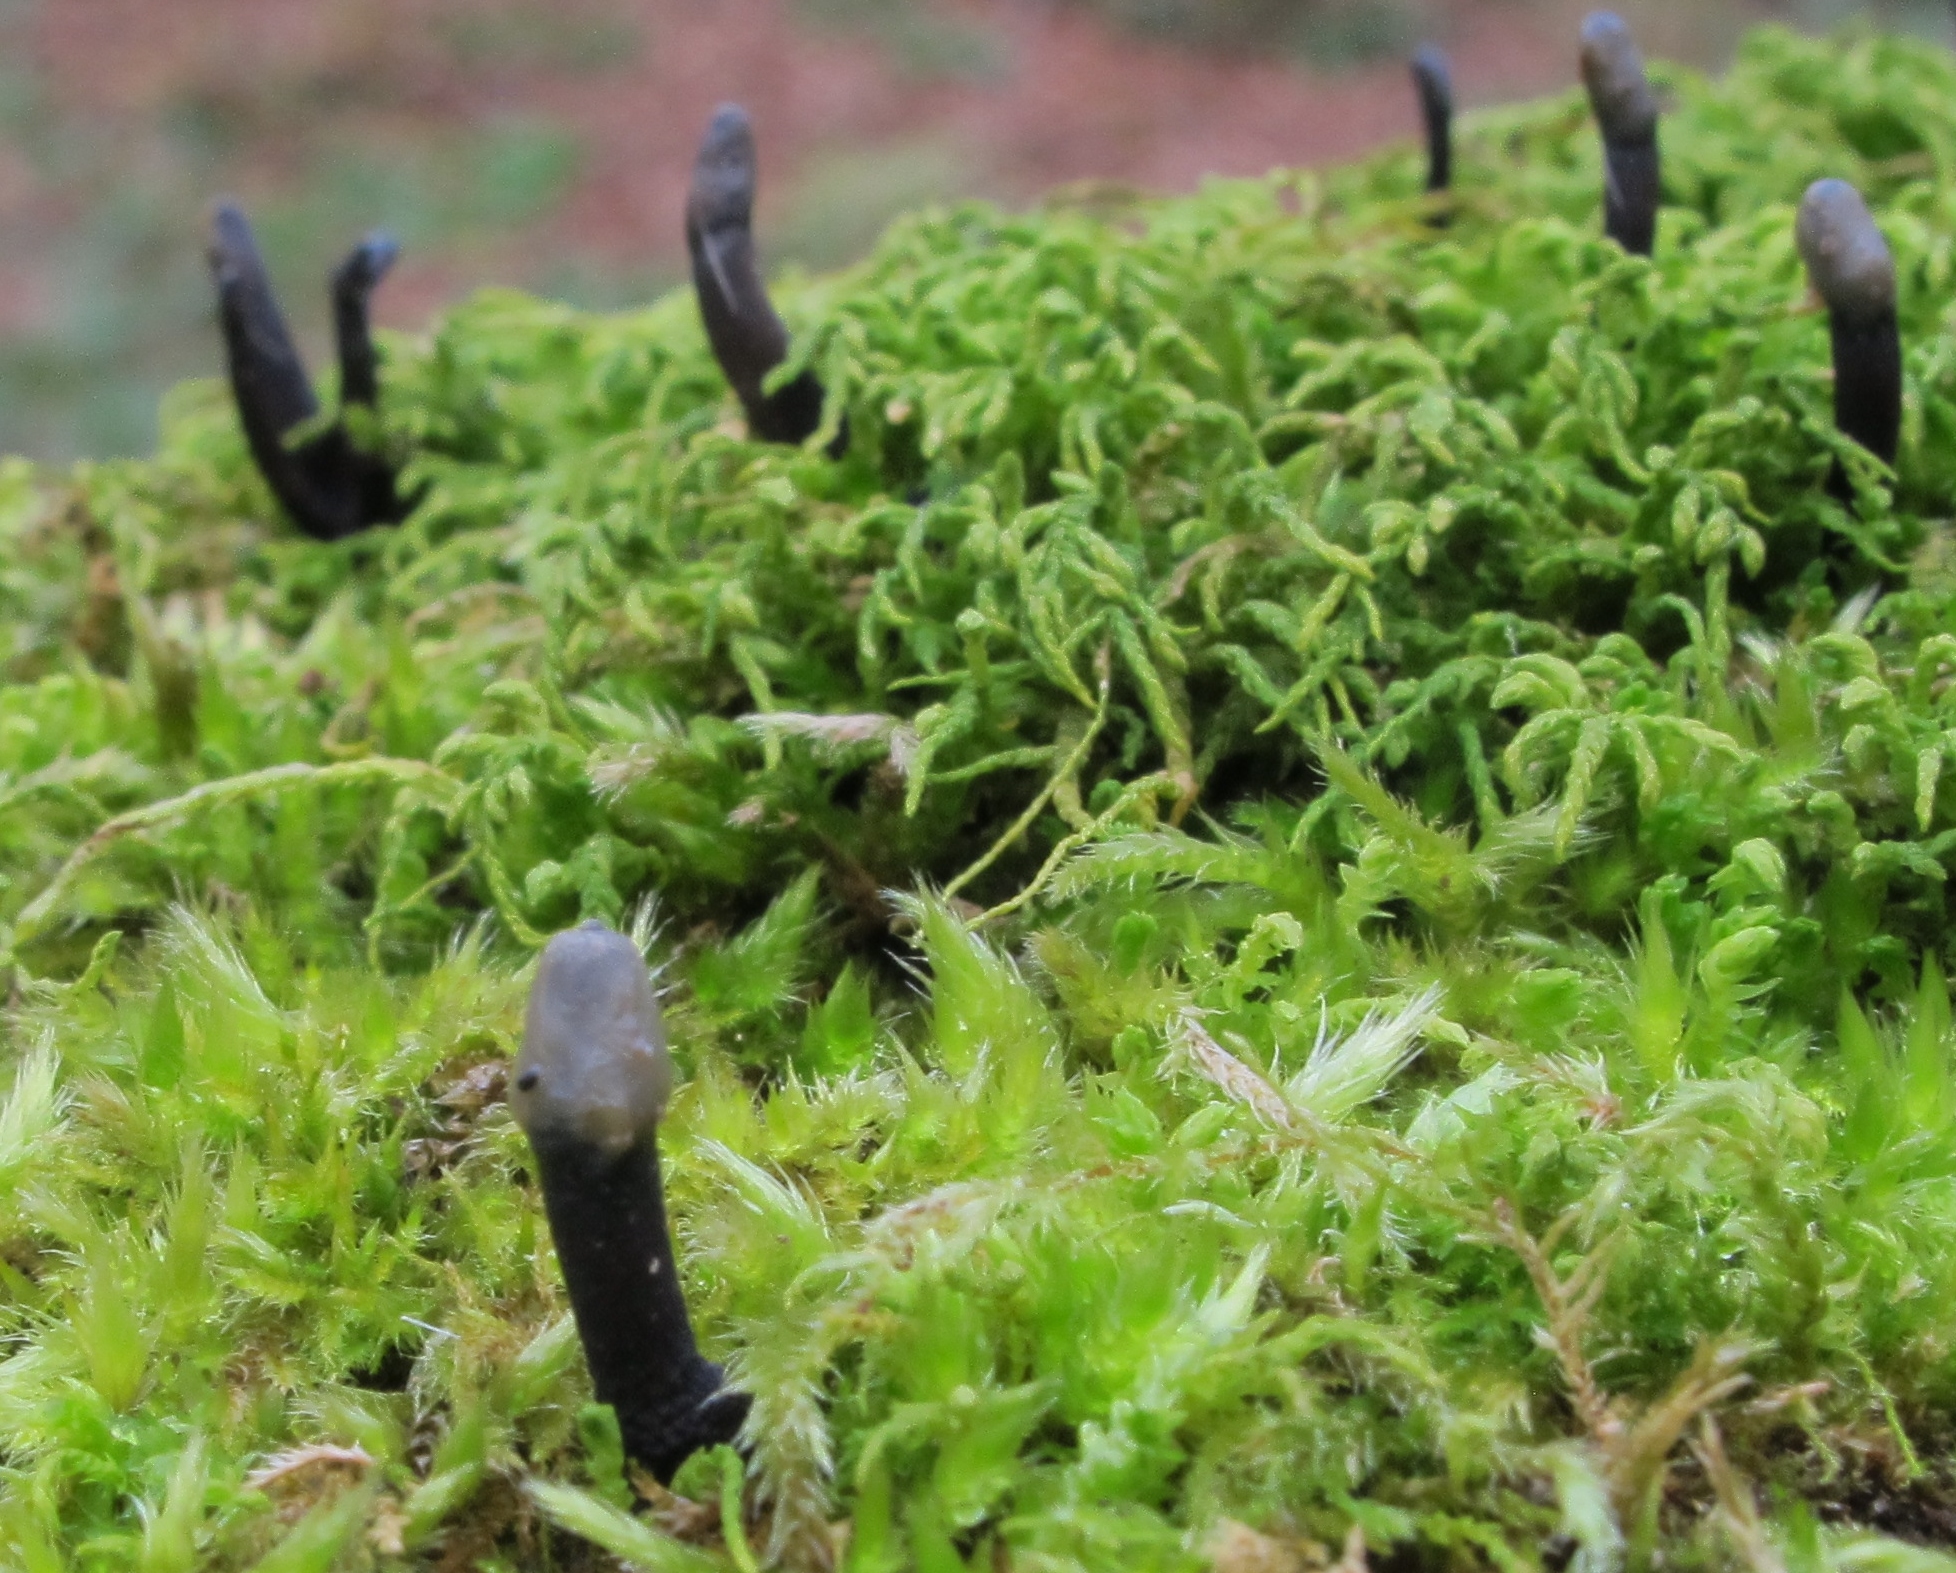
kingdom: Fungi
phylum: Ascomycota
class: Leotiomycetes
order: Helotiales
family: Bulgariaceae
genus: Holwaya
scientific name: Holwaya mucida
